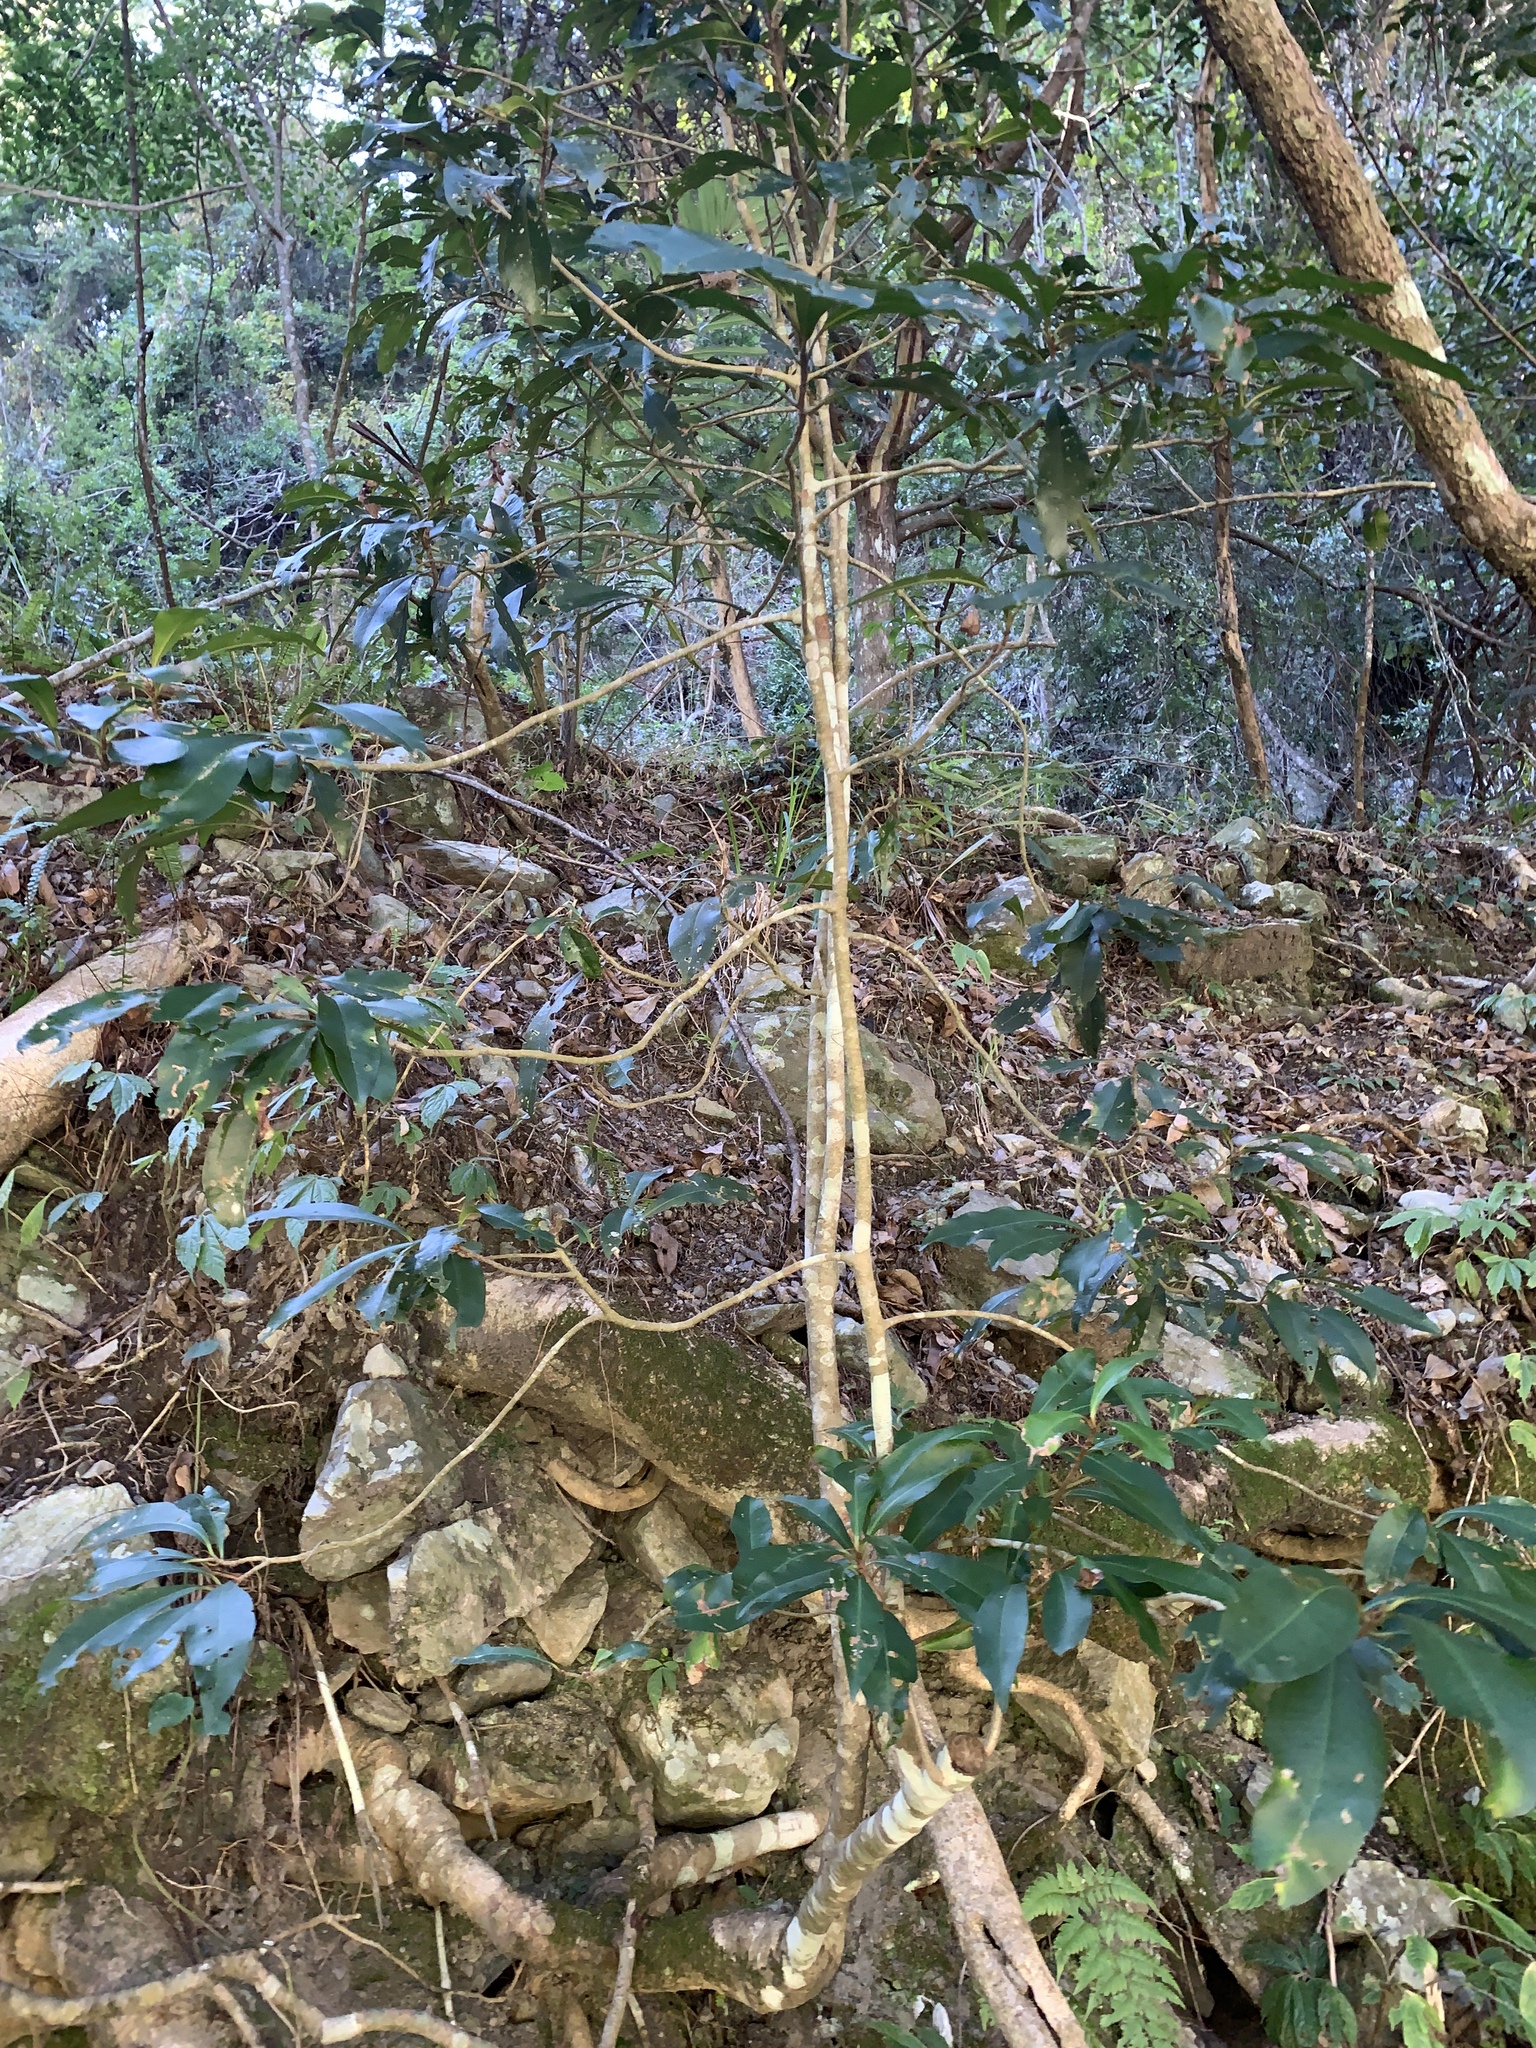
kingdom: Plantae
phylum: Tracheophyta
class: Magnoliopsida
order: Ericales
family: Primulaceae
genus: Ardisia
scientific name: Ardisia sieboldii
